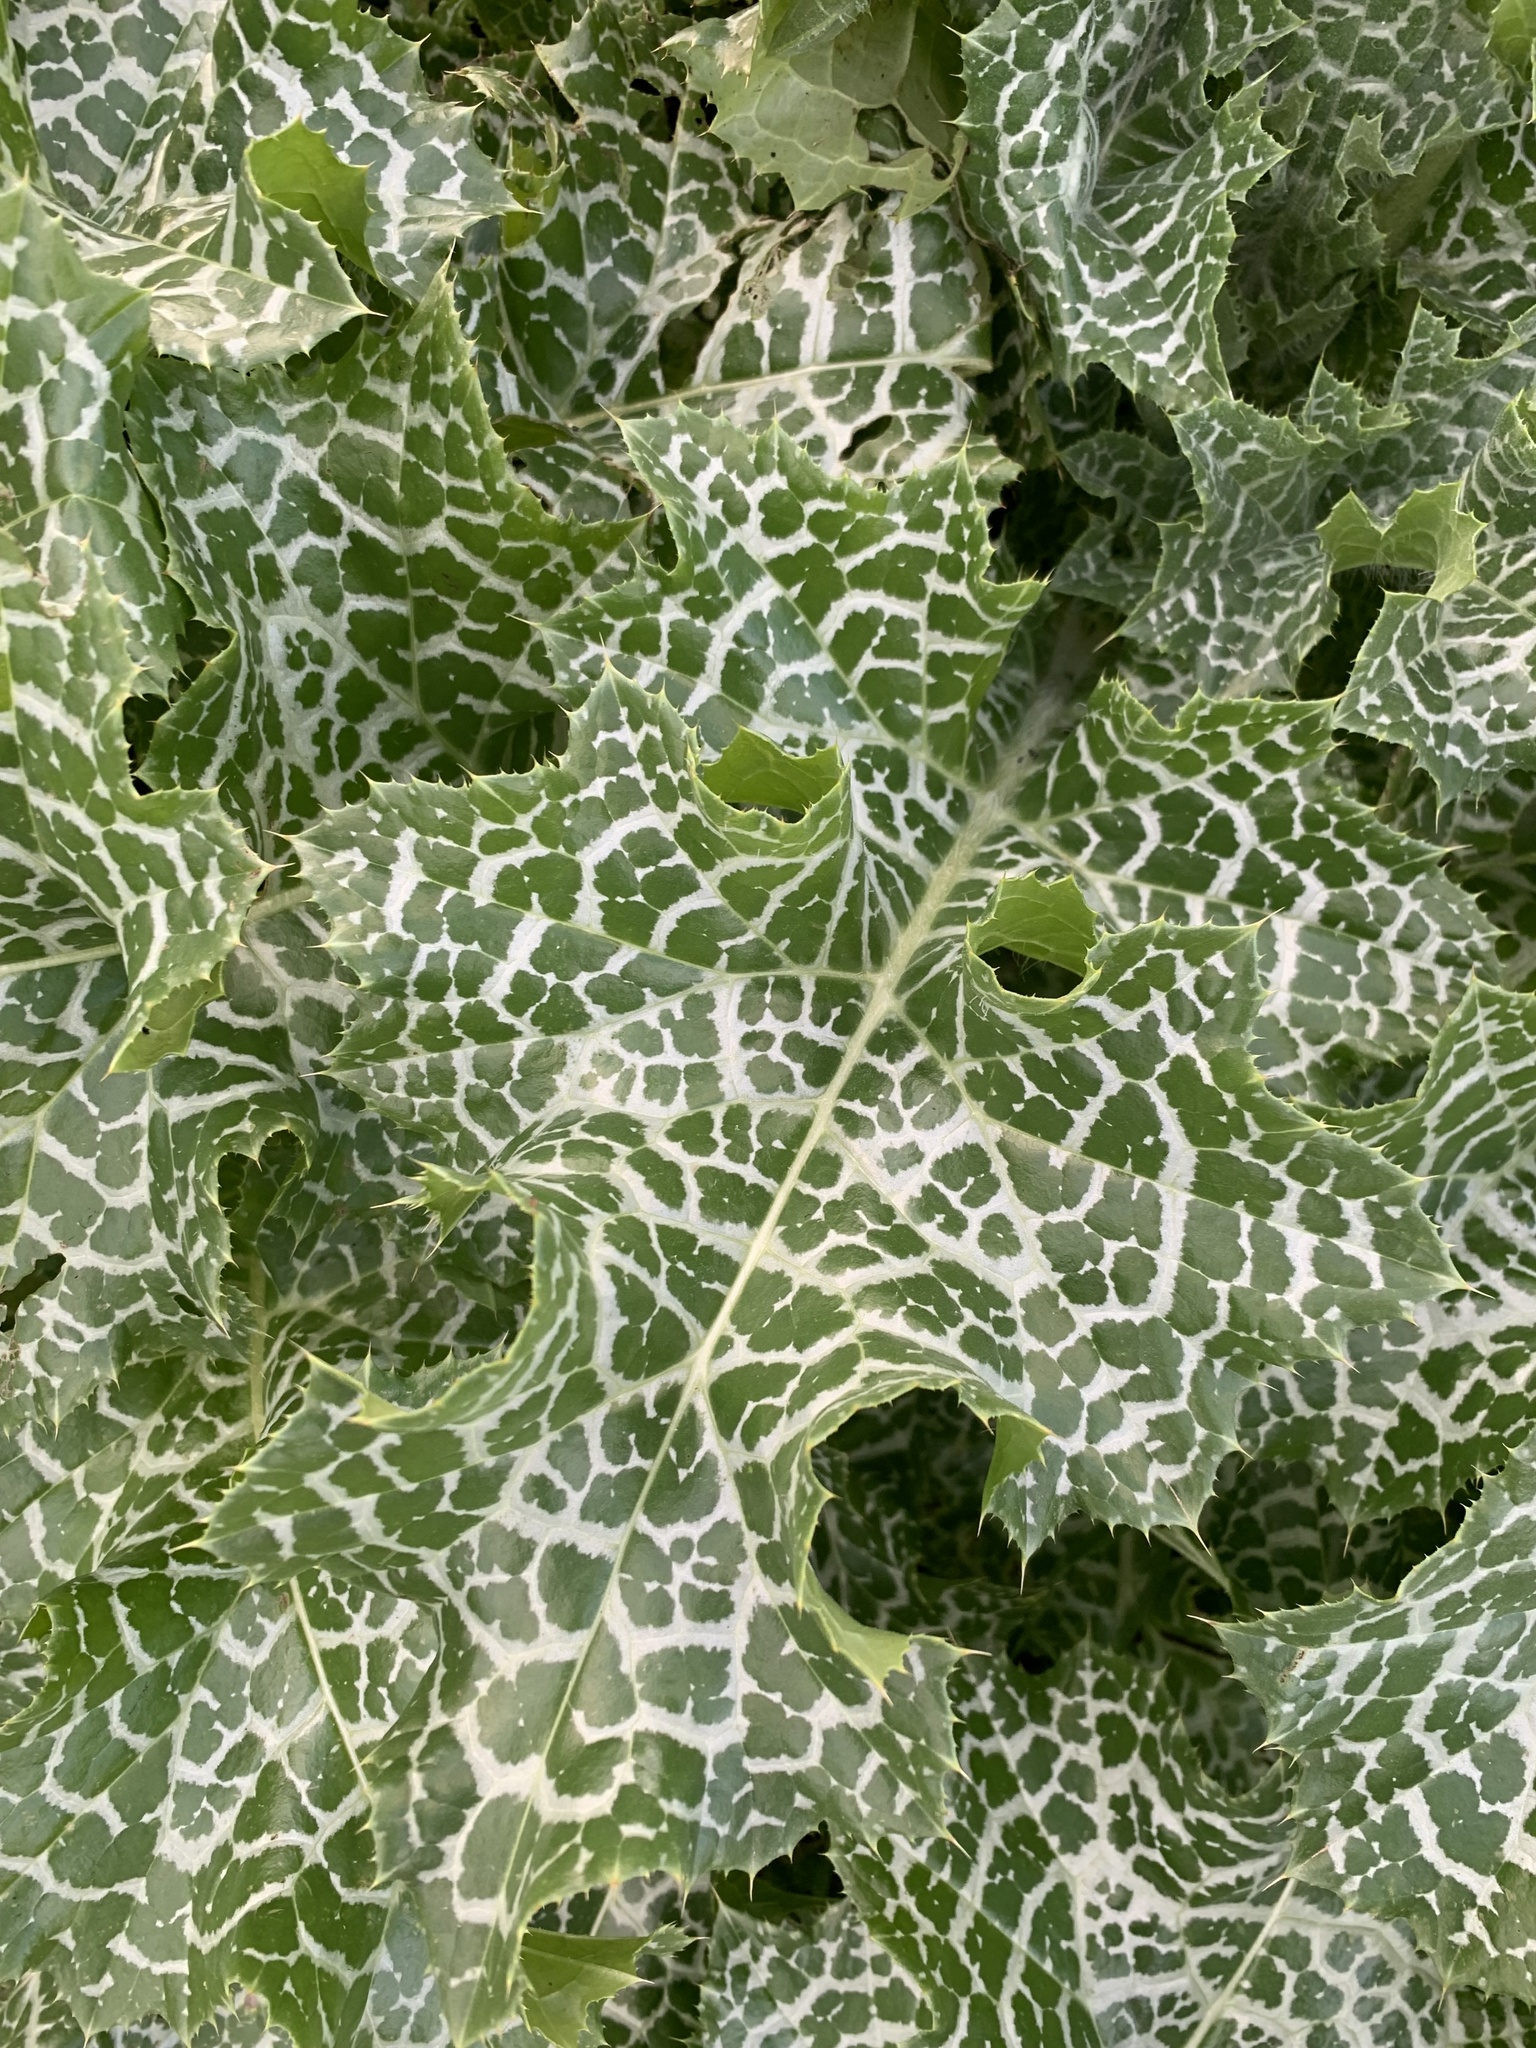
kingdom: Plantae
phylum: Tracheophyta
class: Magnoliopsida
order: Asterales
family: Asteraceae
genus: Silybum
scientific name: Silybum marianum
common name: Milk thistle
